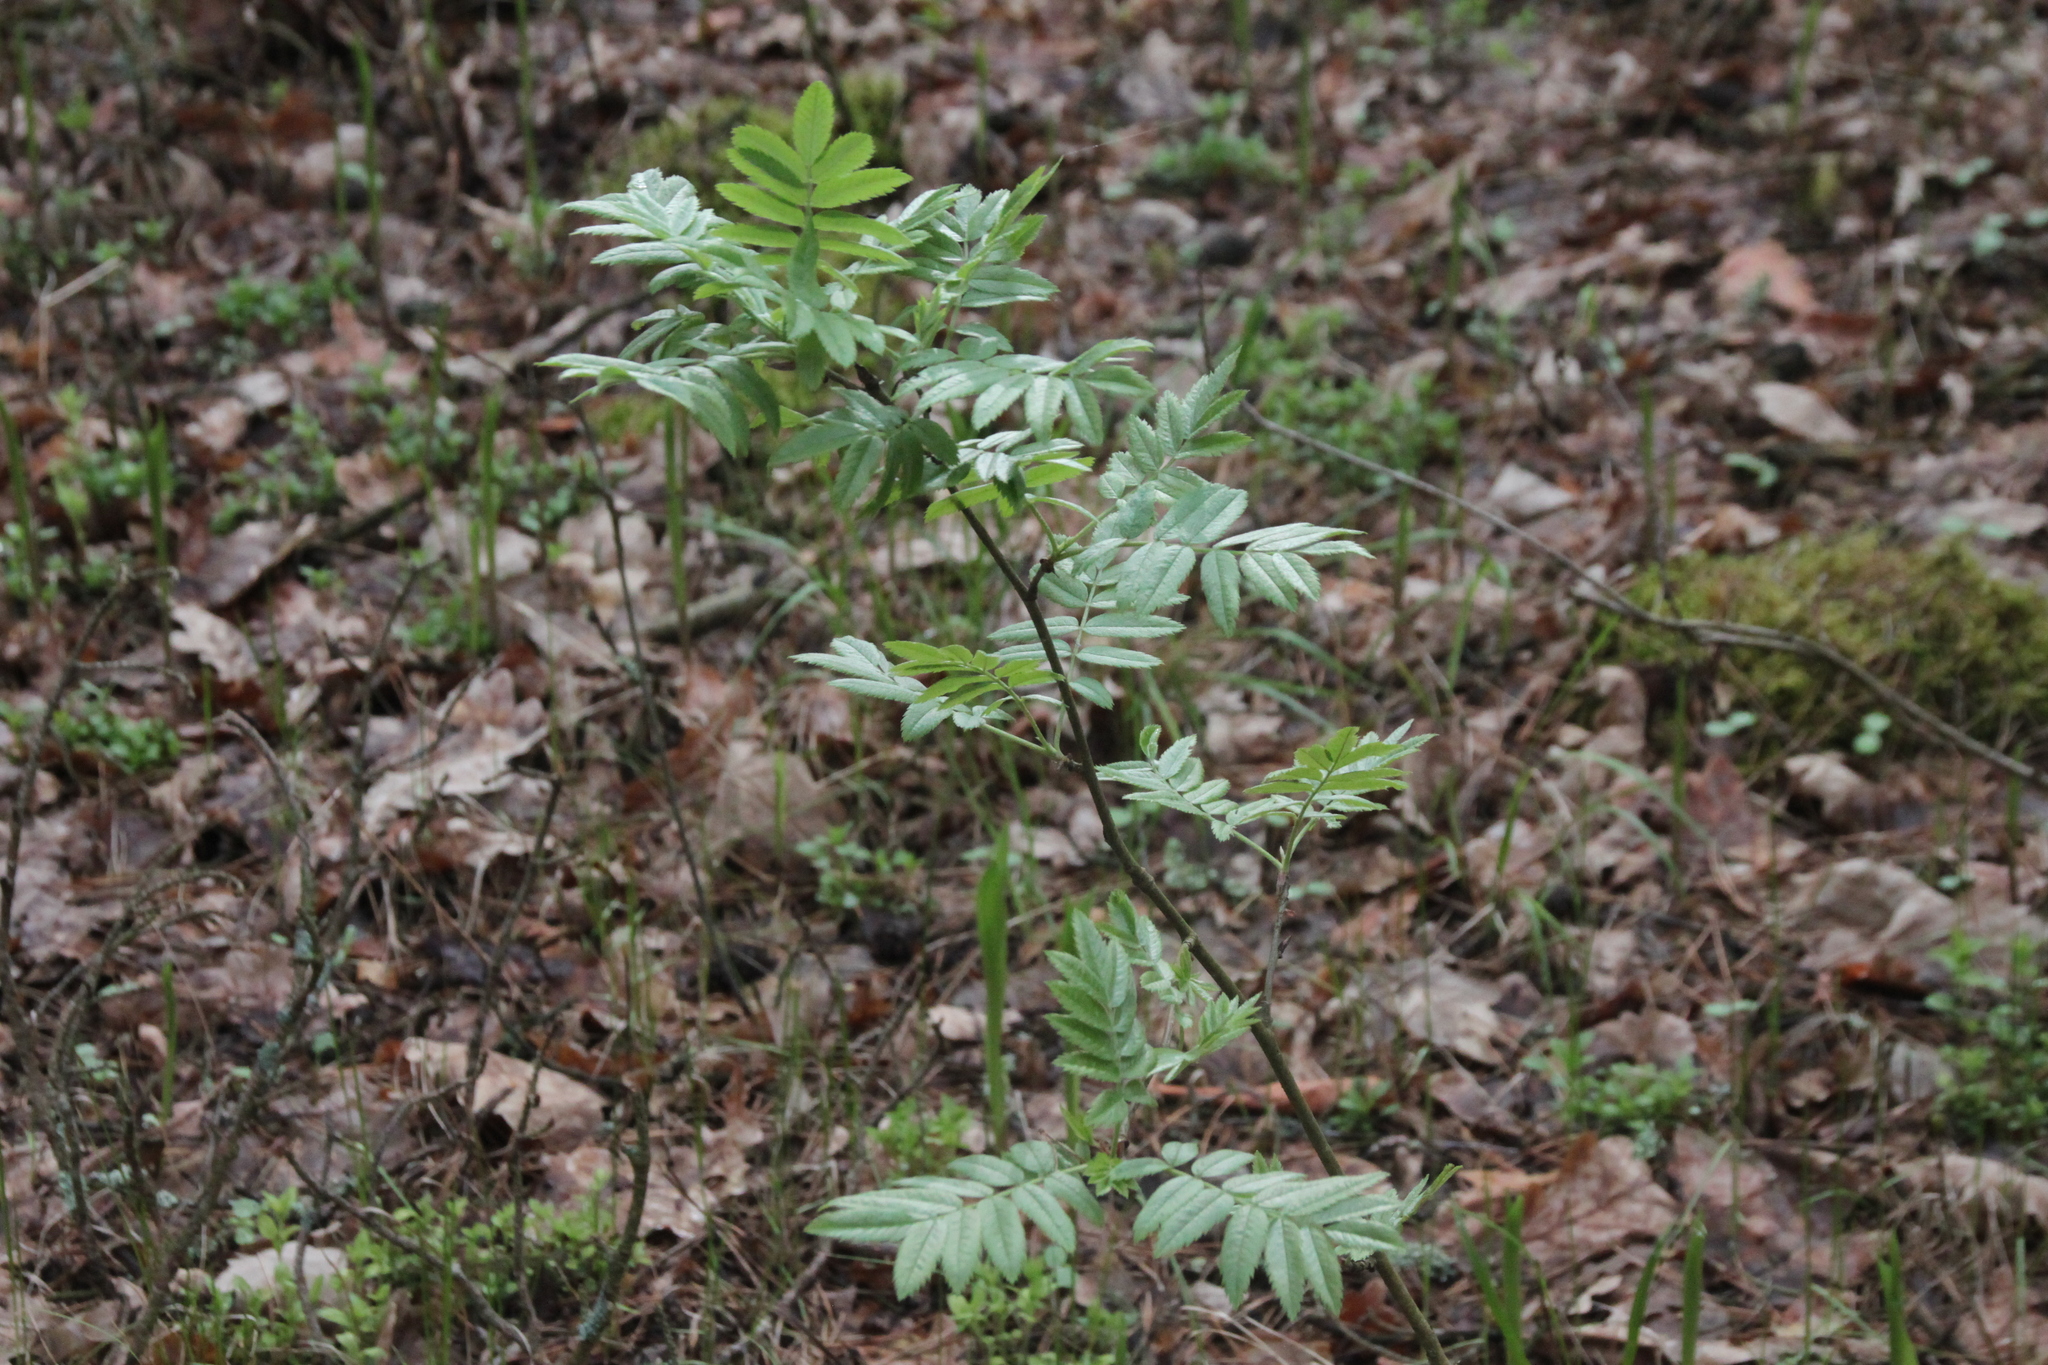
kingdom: Plantae
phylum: Tracheophyta
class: Magnoliopsida
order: Rosales
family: Rosaceae
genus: Sorbus
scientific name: Sorbus aucuparia
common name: Rowan
